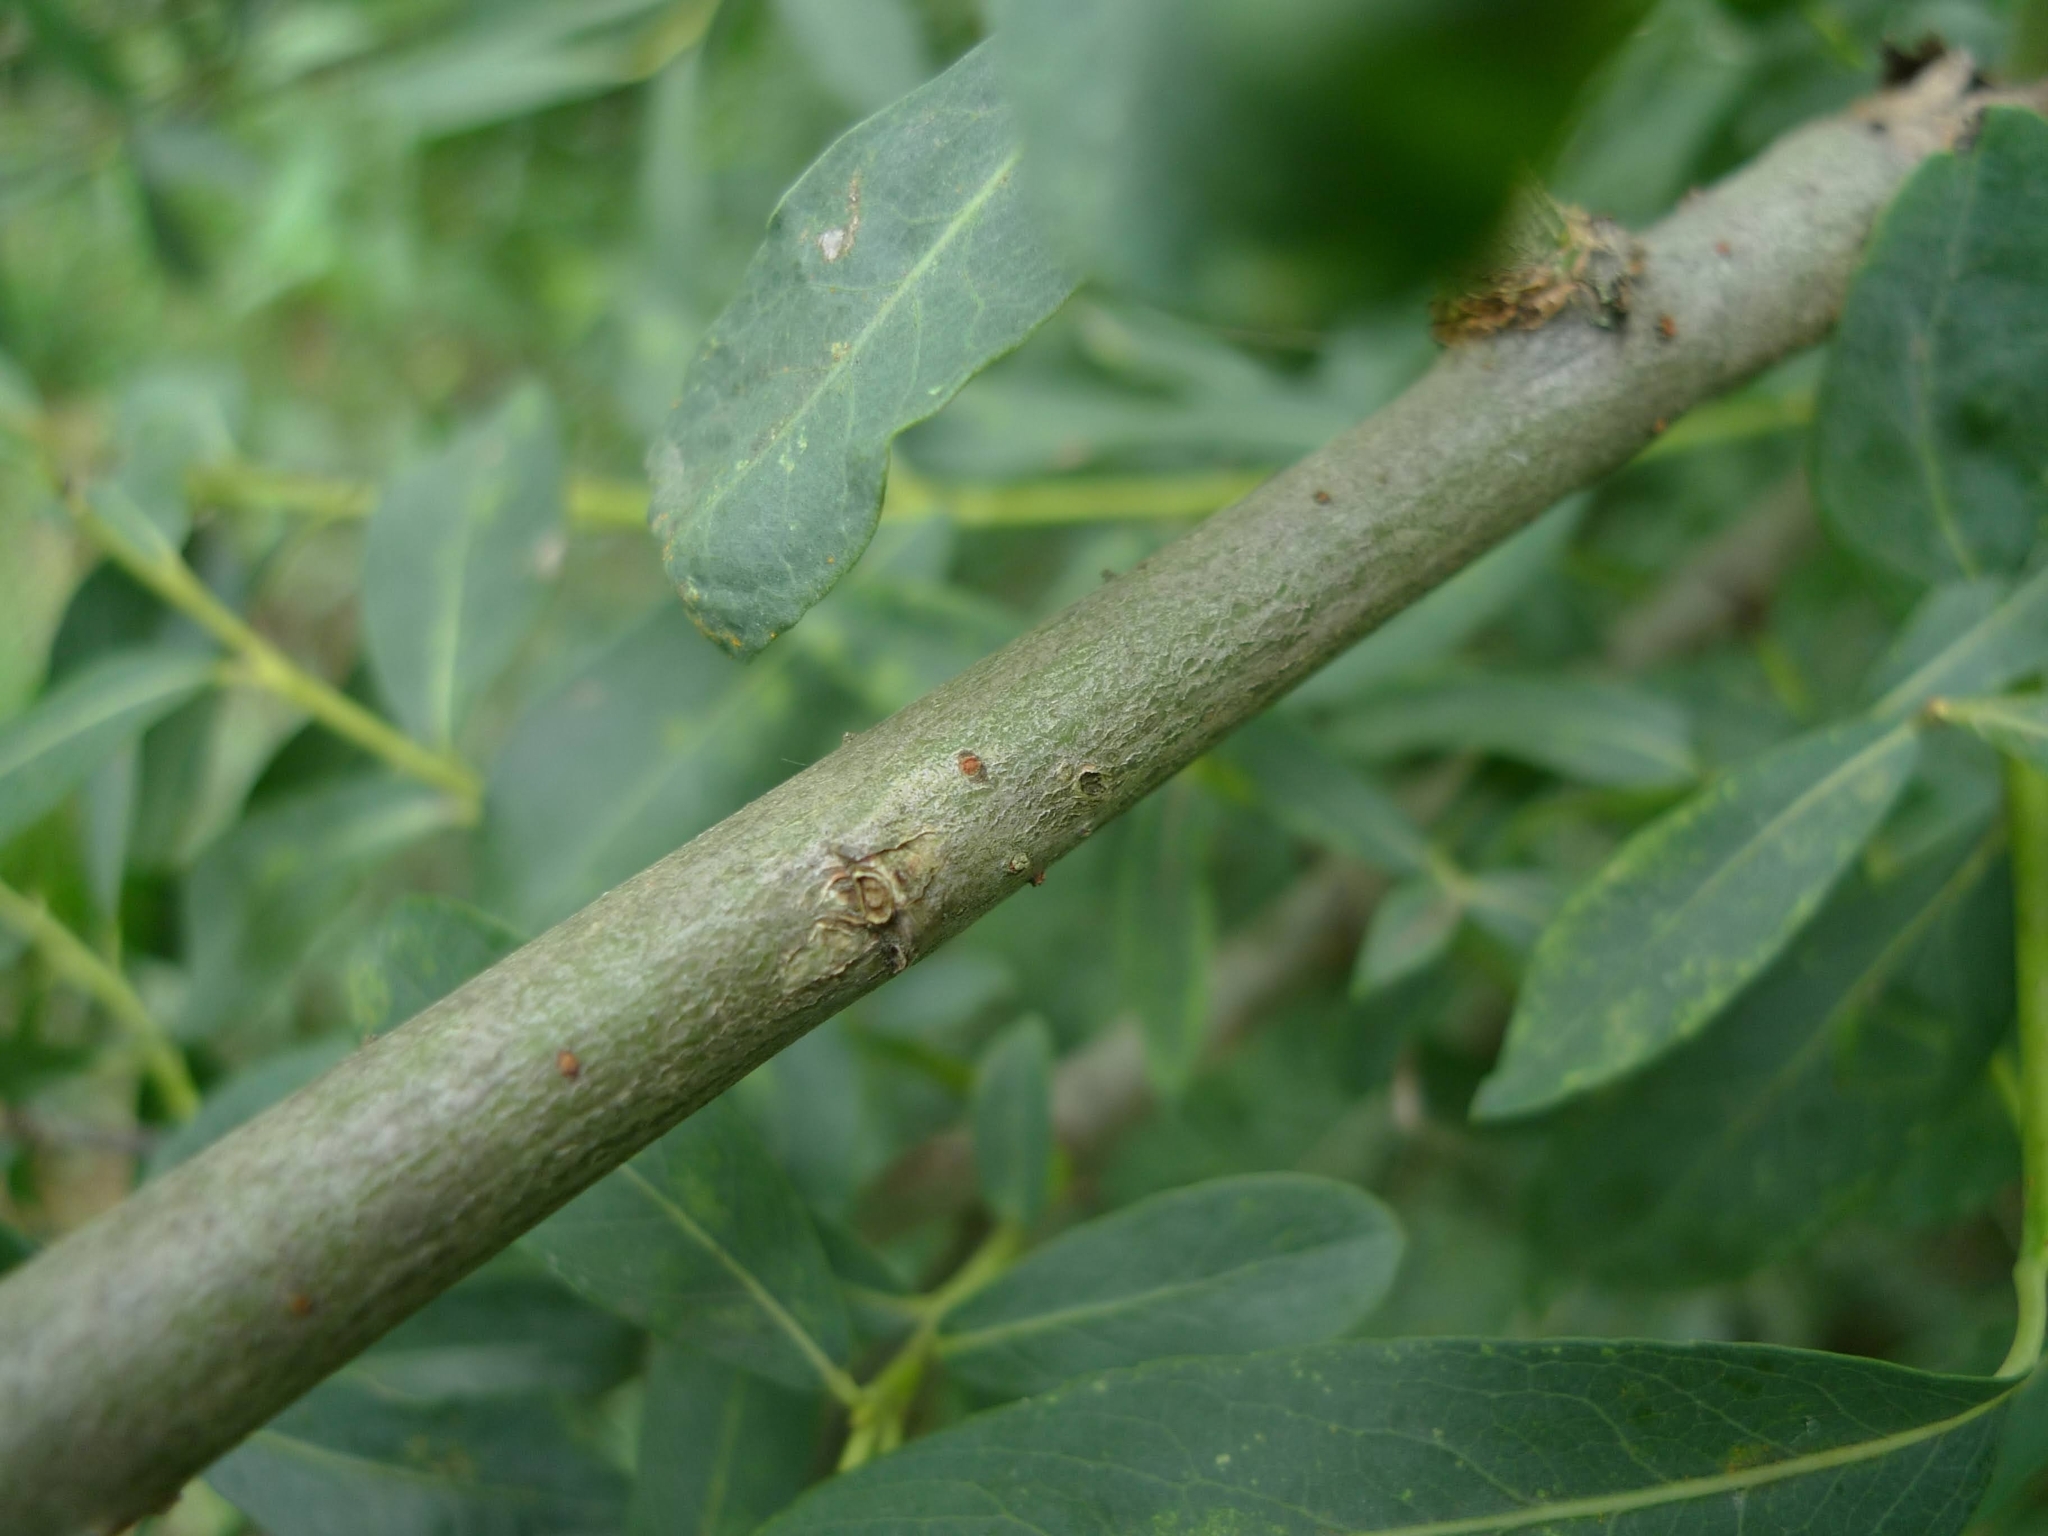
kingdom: Plantae
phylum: Tracheophyta
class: Magnoliopsida
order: Malpighiales
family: Salicaceae
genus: Salix
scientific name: Salix purpurea
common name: Purple willow
